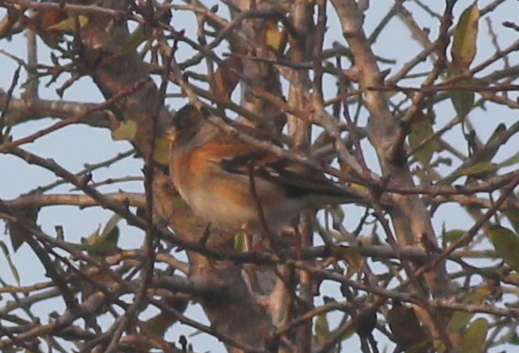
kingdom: Animalia
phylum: Chordata
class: Aves
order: Passeriformes
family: Fringillidae
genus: Fringilla
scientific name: Fringilla montifringilla
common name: Brambling
